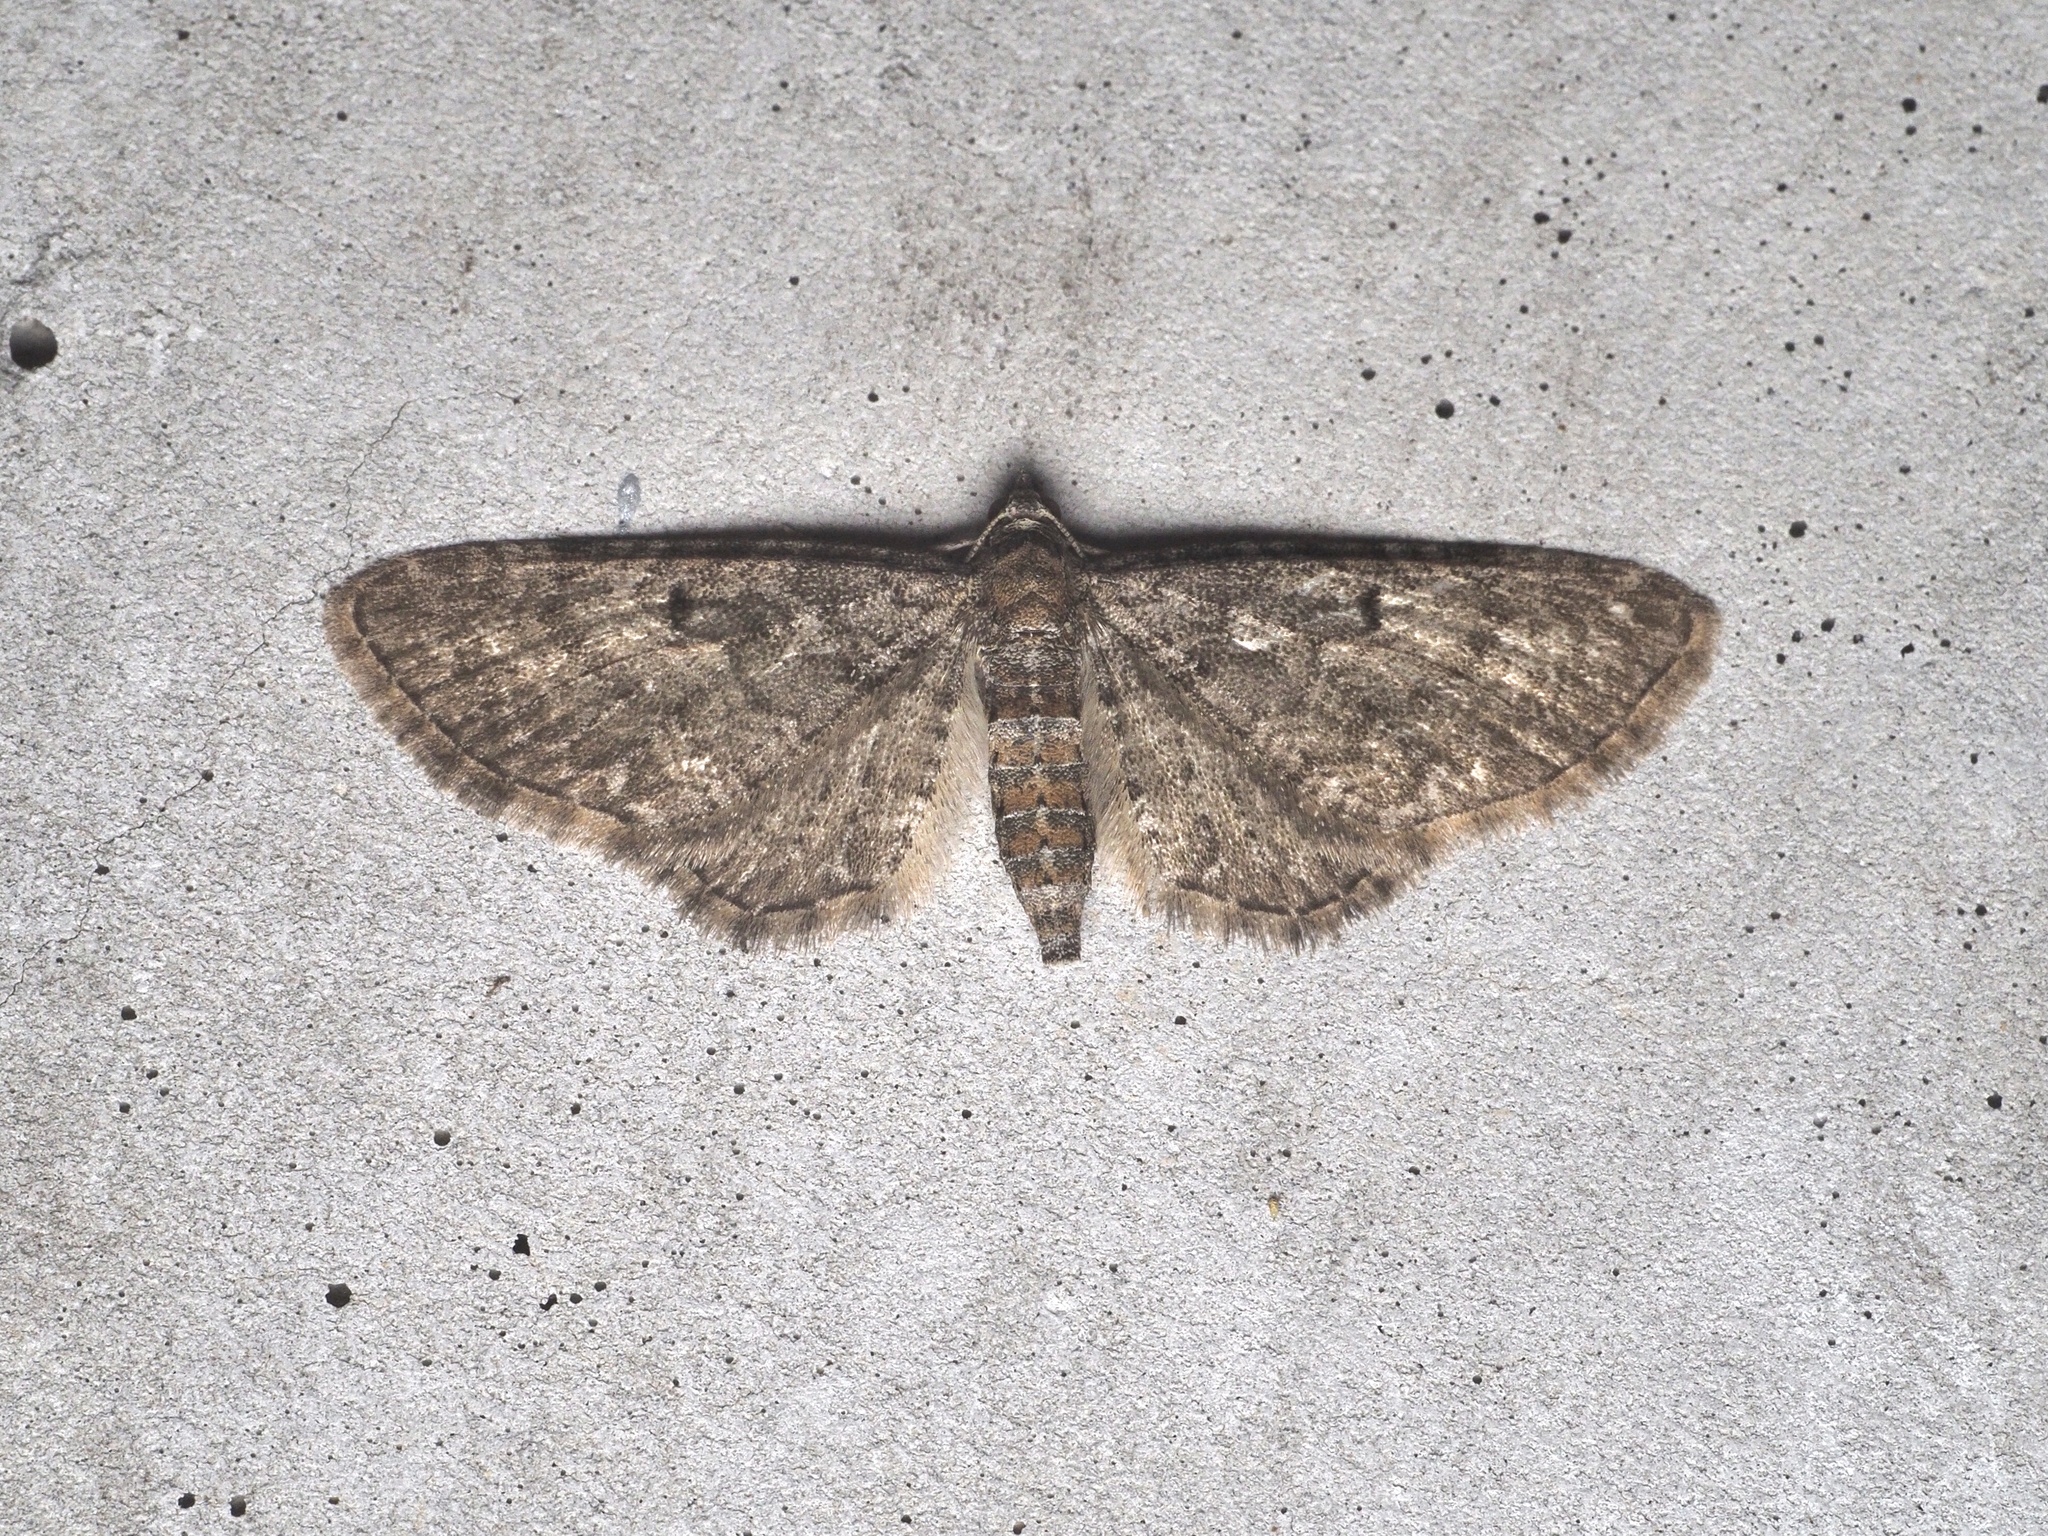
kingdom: Animalia
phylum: Arthropoda
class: Insecta
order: Lepidoptera
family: Geometridae
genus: Eupithecia
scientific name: Eupithecia subfuscata
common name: Grey pug
